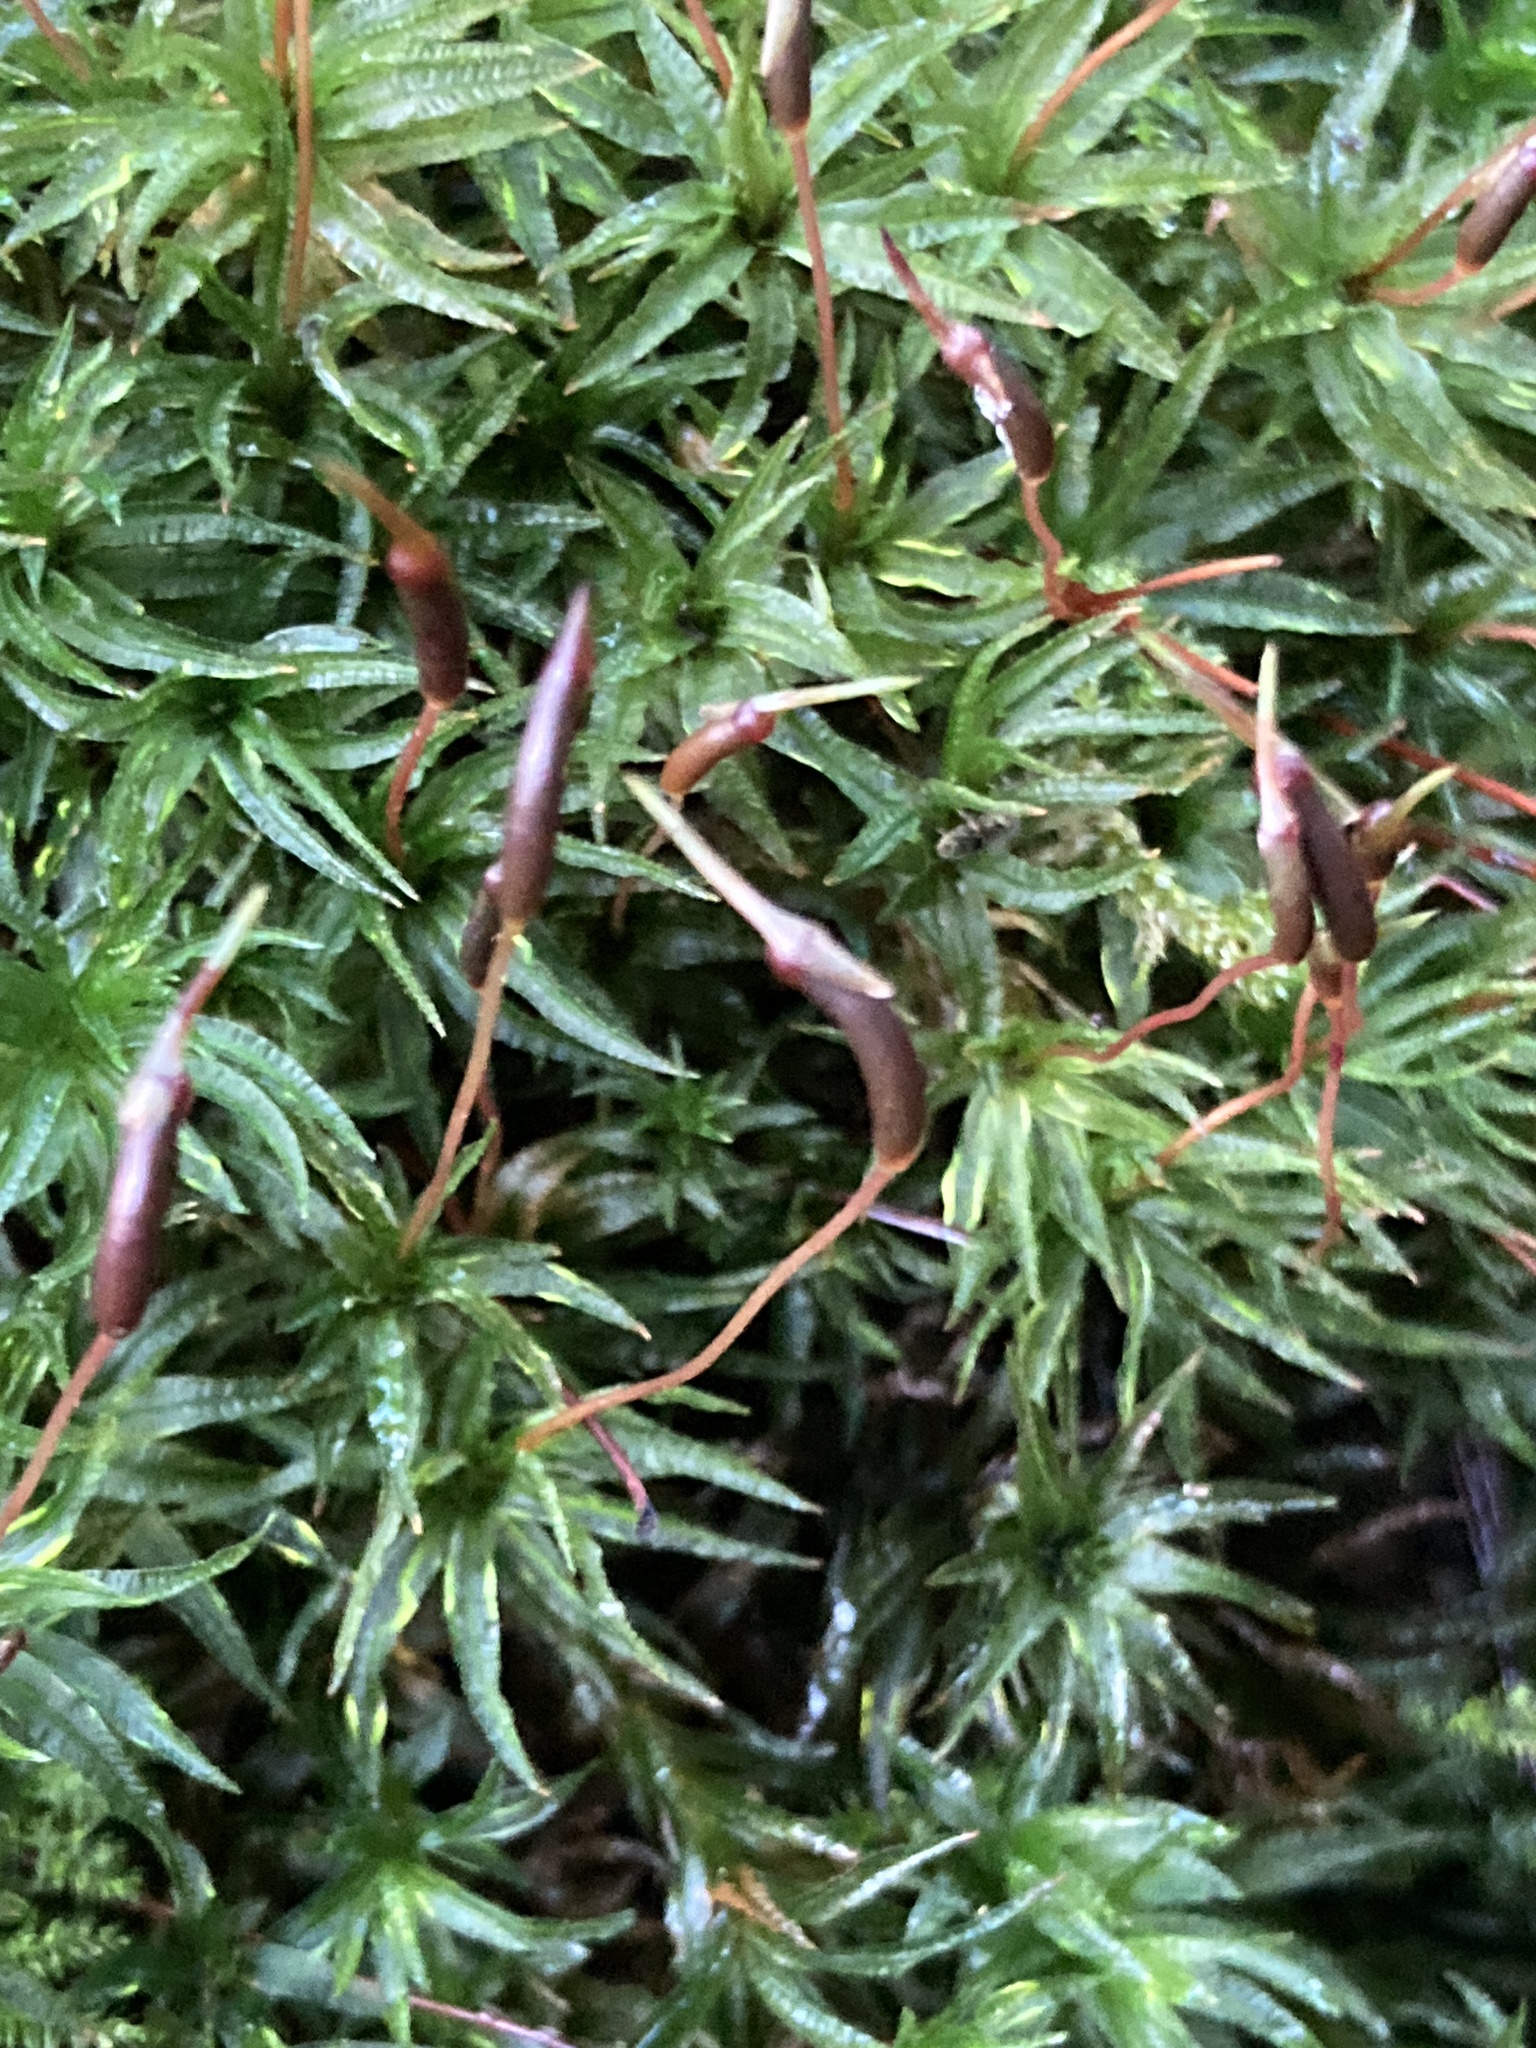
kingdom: Plantae
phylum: Bryophyta
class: Polytrichopsida
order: Polytrichales
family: Polytrichaceae
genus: Atrichum
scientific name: Atrichum undulatum
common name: Common smoothcap
